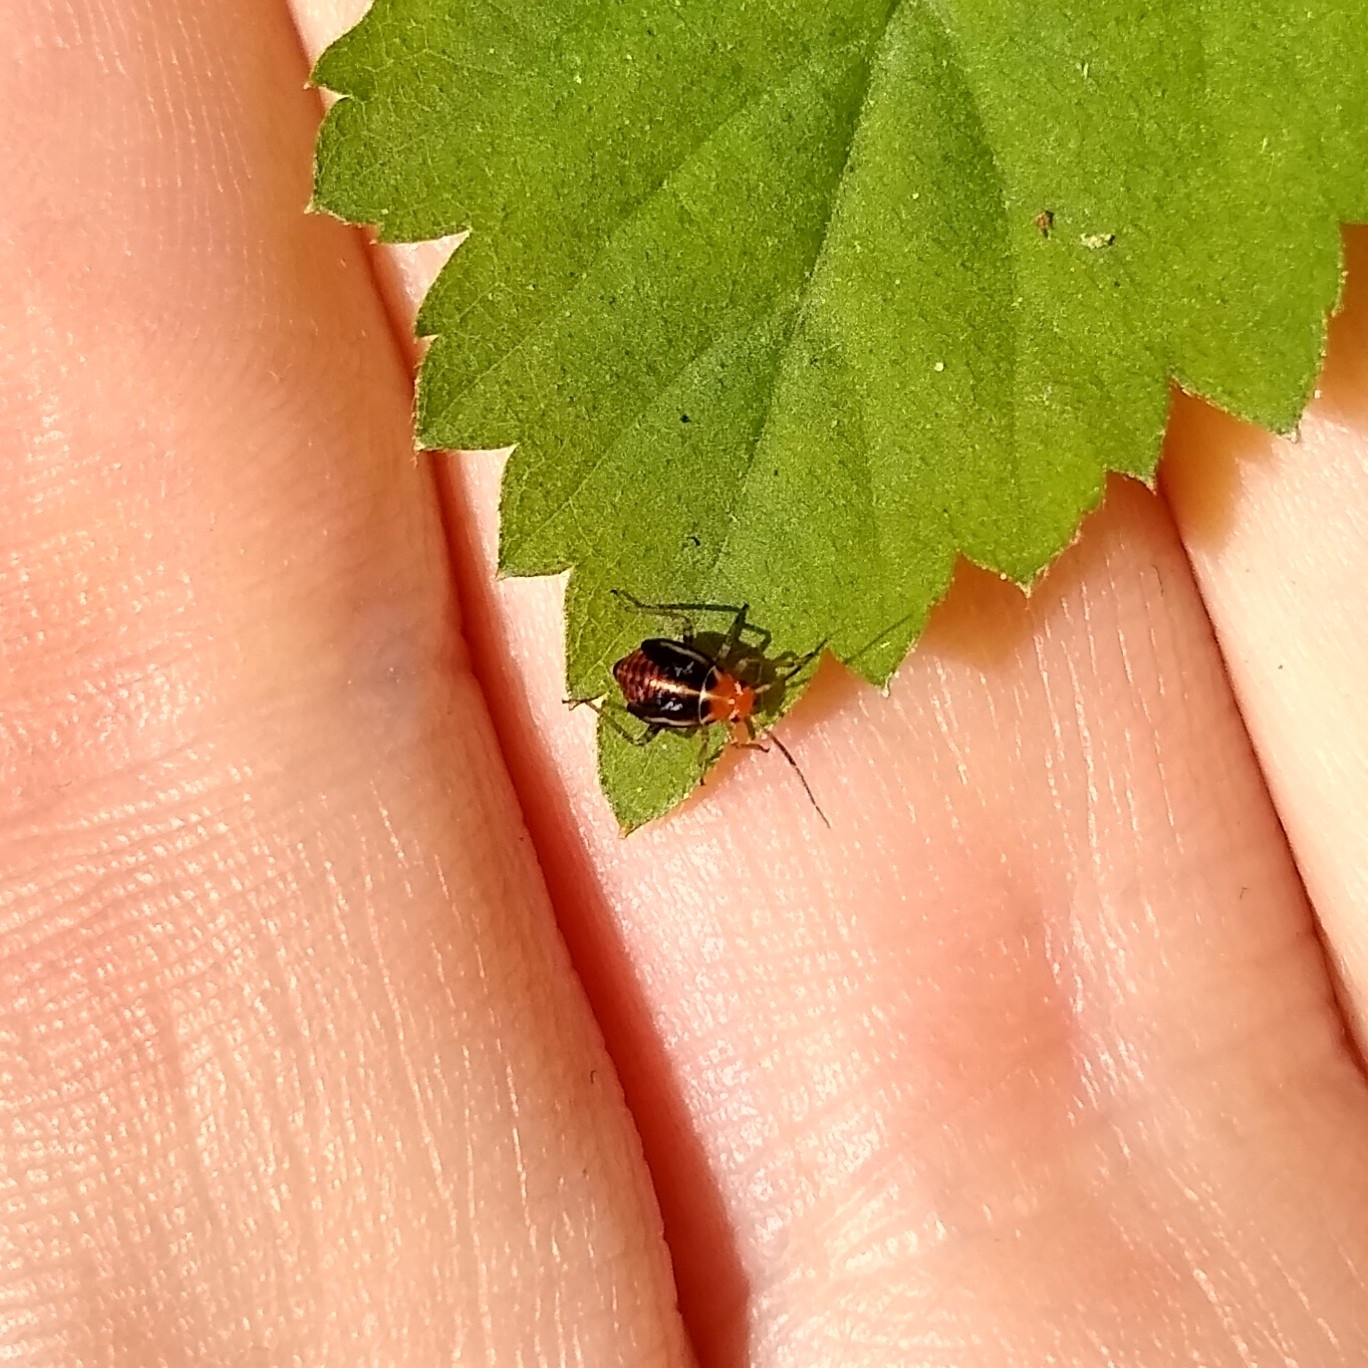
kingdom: Animalia
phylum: Arthropoda
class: Insecta
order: Hemiptera
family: Miridae
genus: Poecilocapsus
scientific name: Poecilocapsus lineatus
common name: Four-lined plant bug
